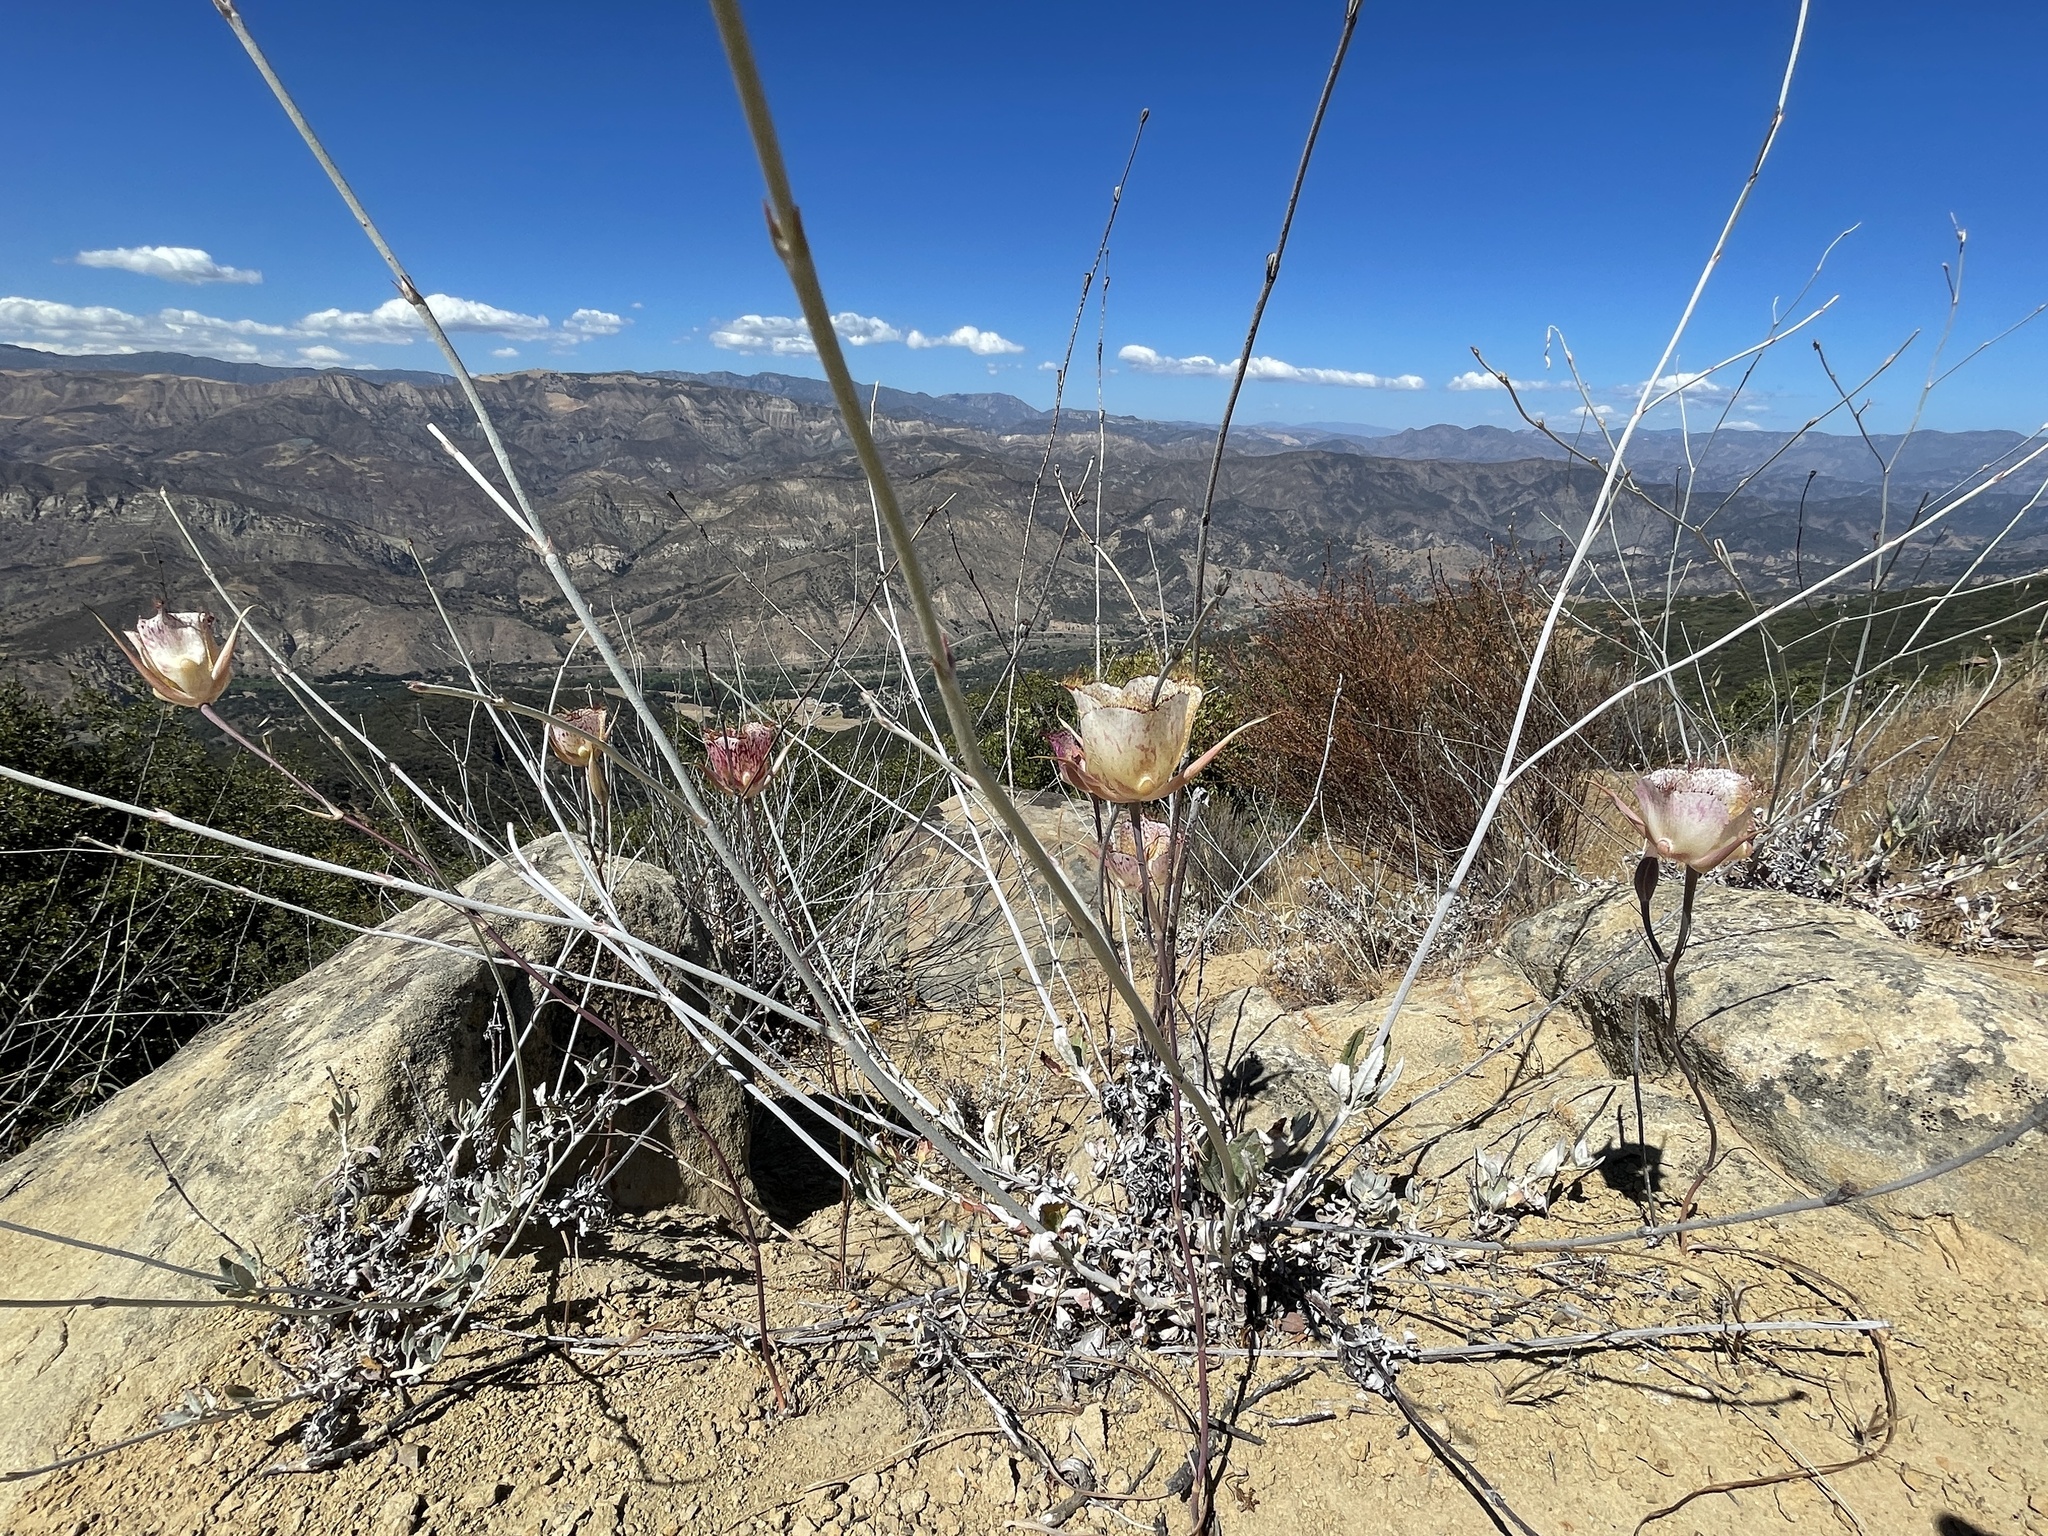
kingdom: Plantae
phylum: Tracheophyta
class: Liliopsida
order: Liliales
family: Liliaceae
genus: Calochortus
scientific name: Calochortus fimbriatus
